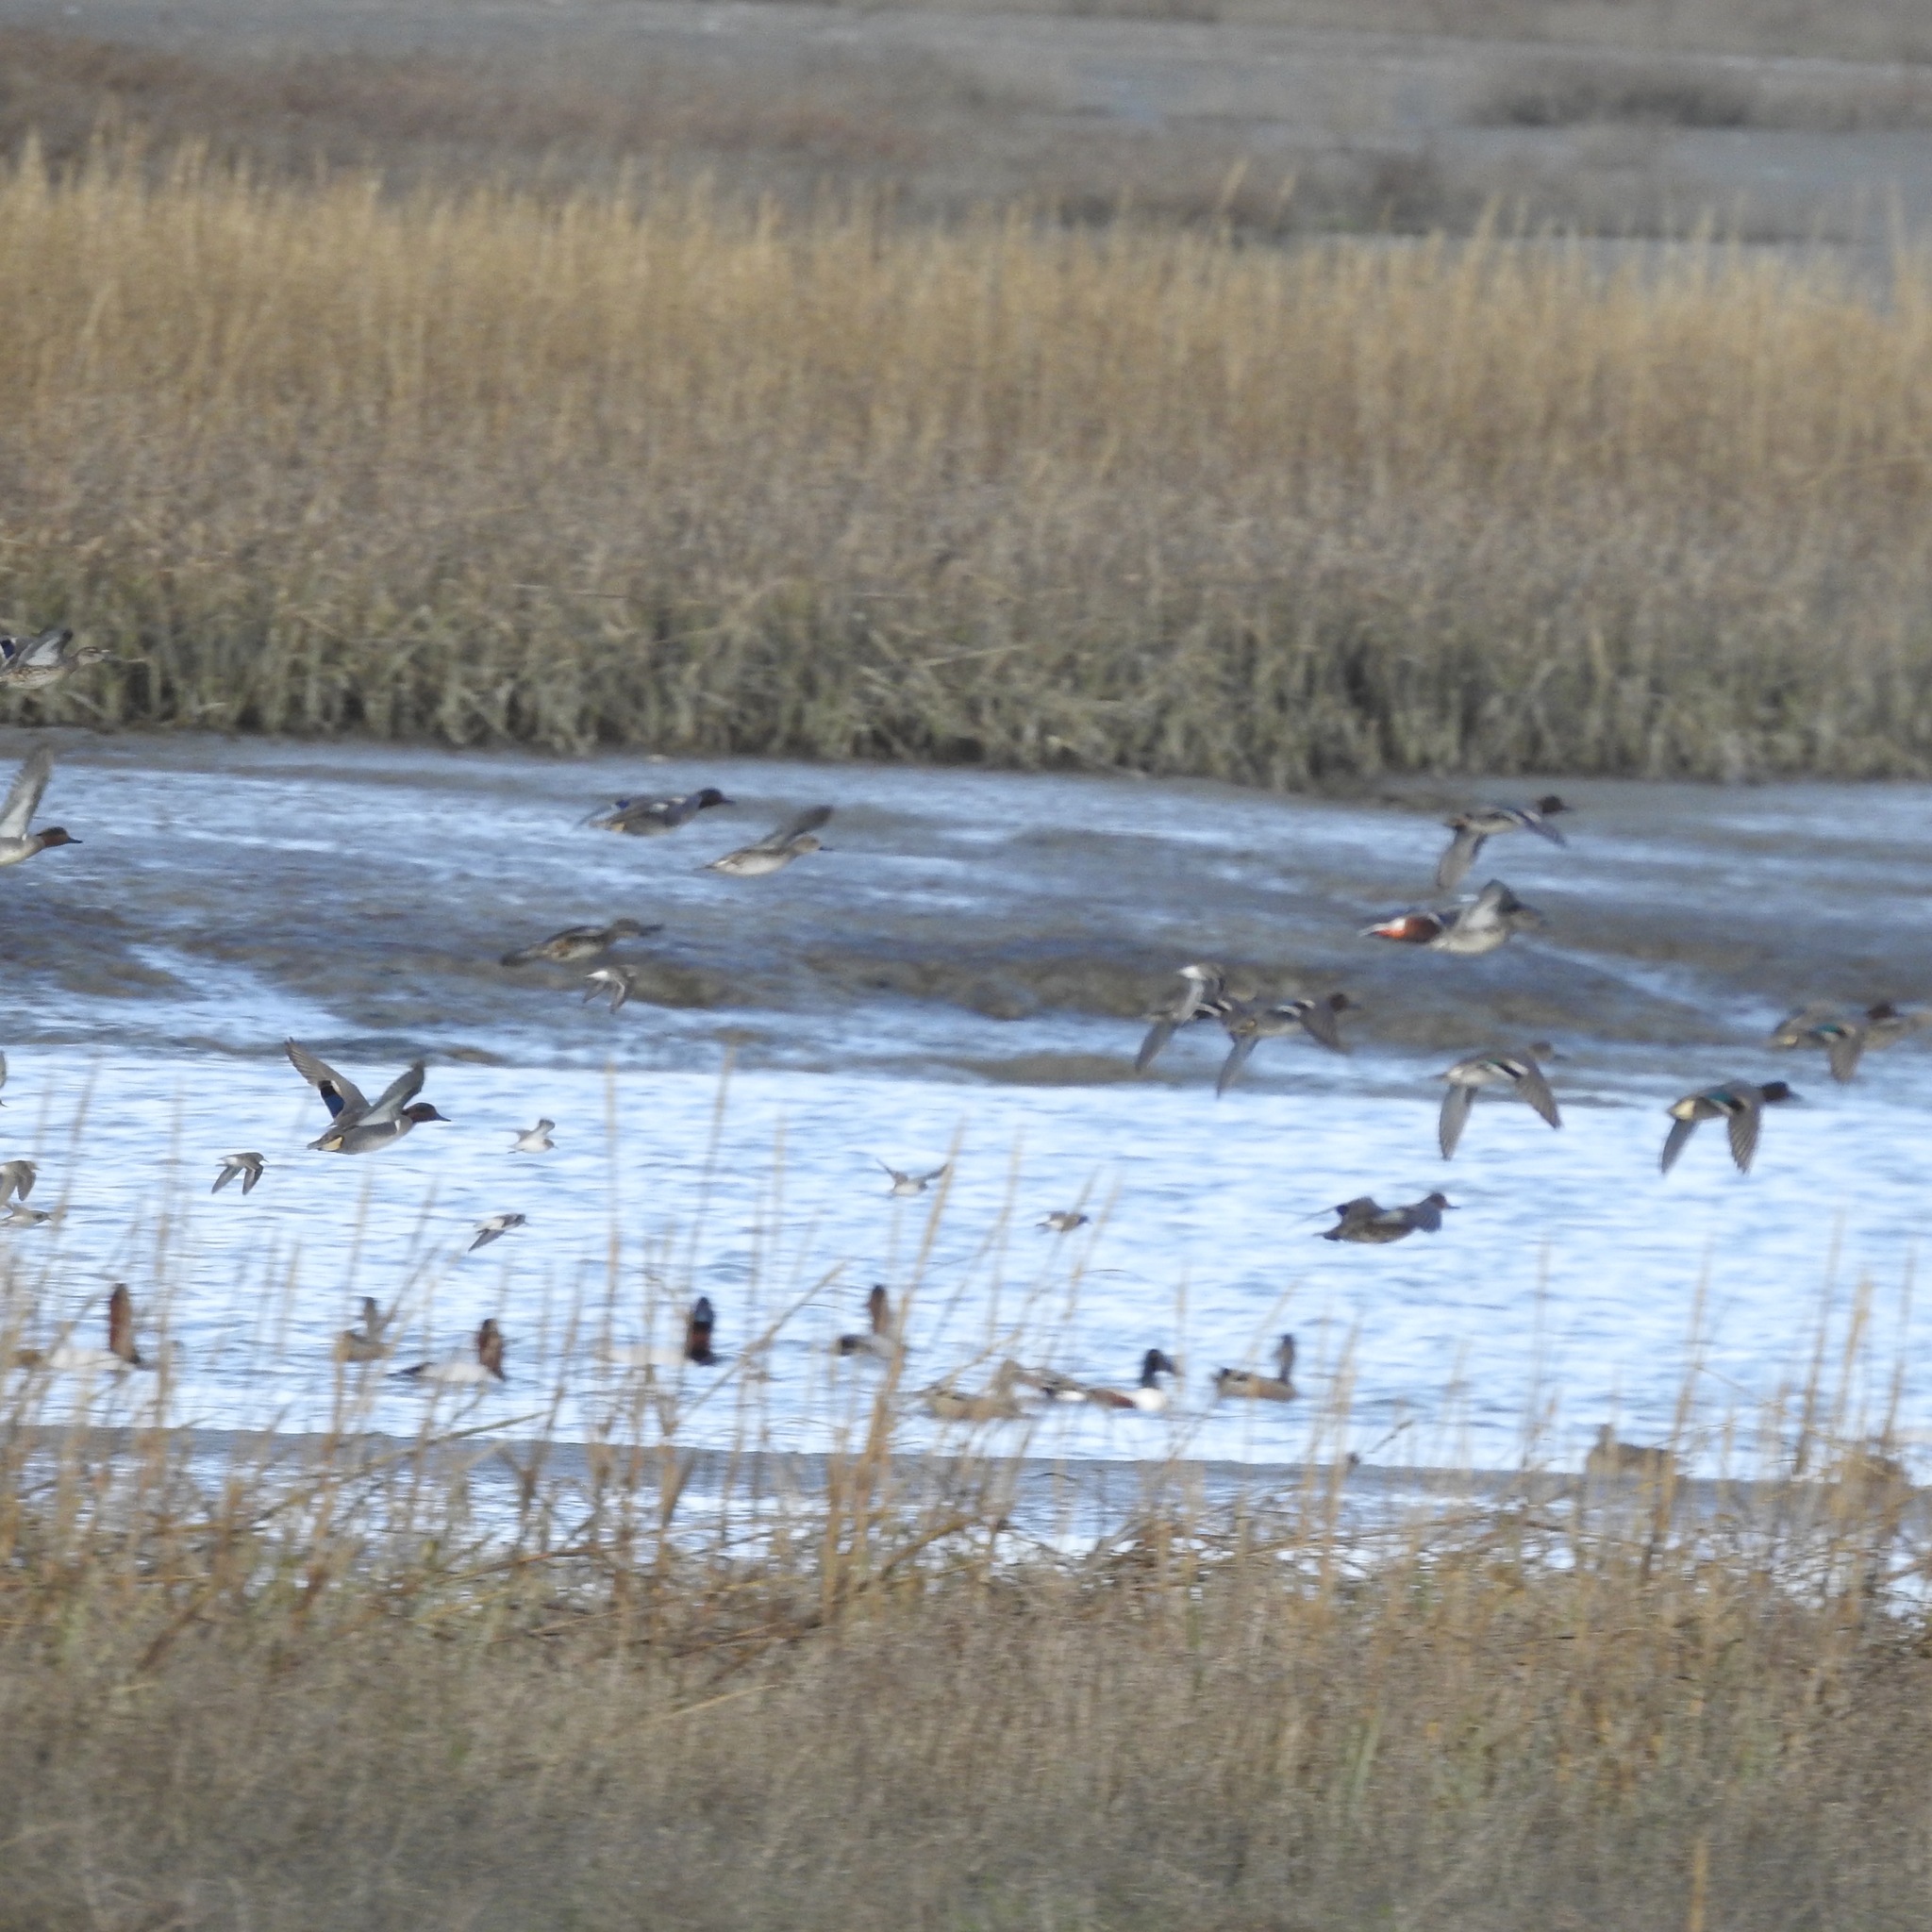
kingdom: Animalia
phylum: Chordata
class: Aves
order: Anseriformes
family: Anatidae
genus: Anas
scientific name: Anas crecca
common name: Eurasian teal
